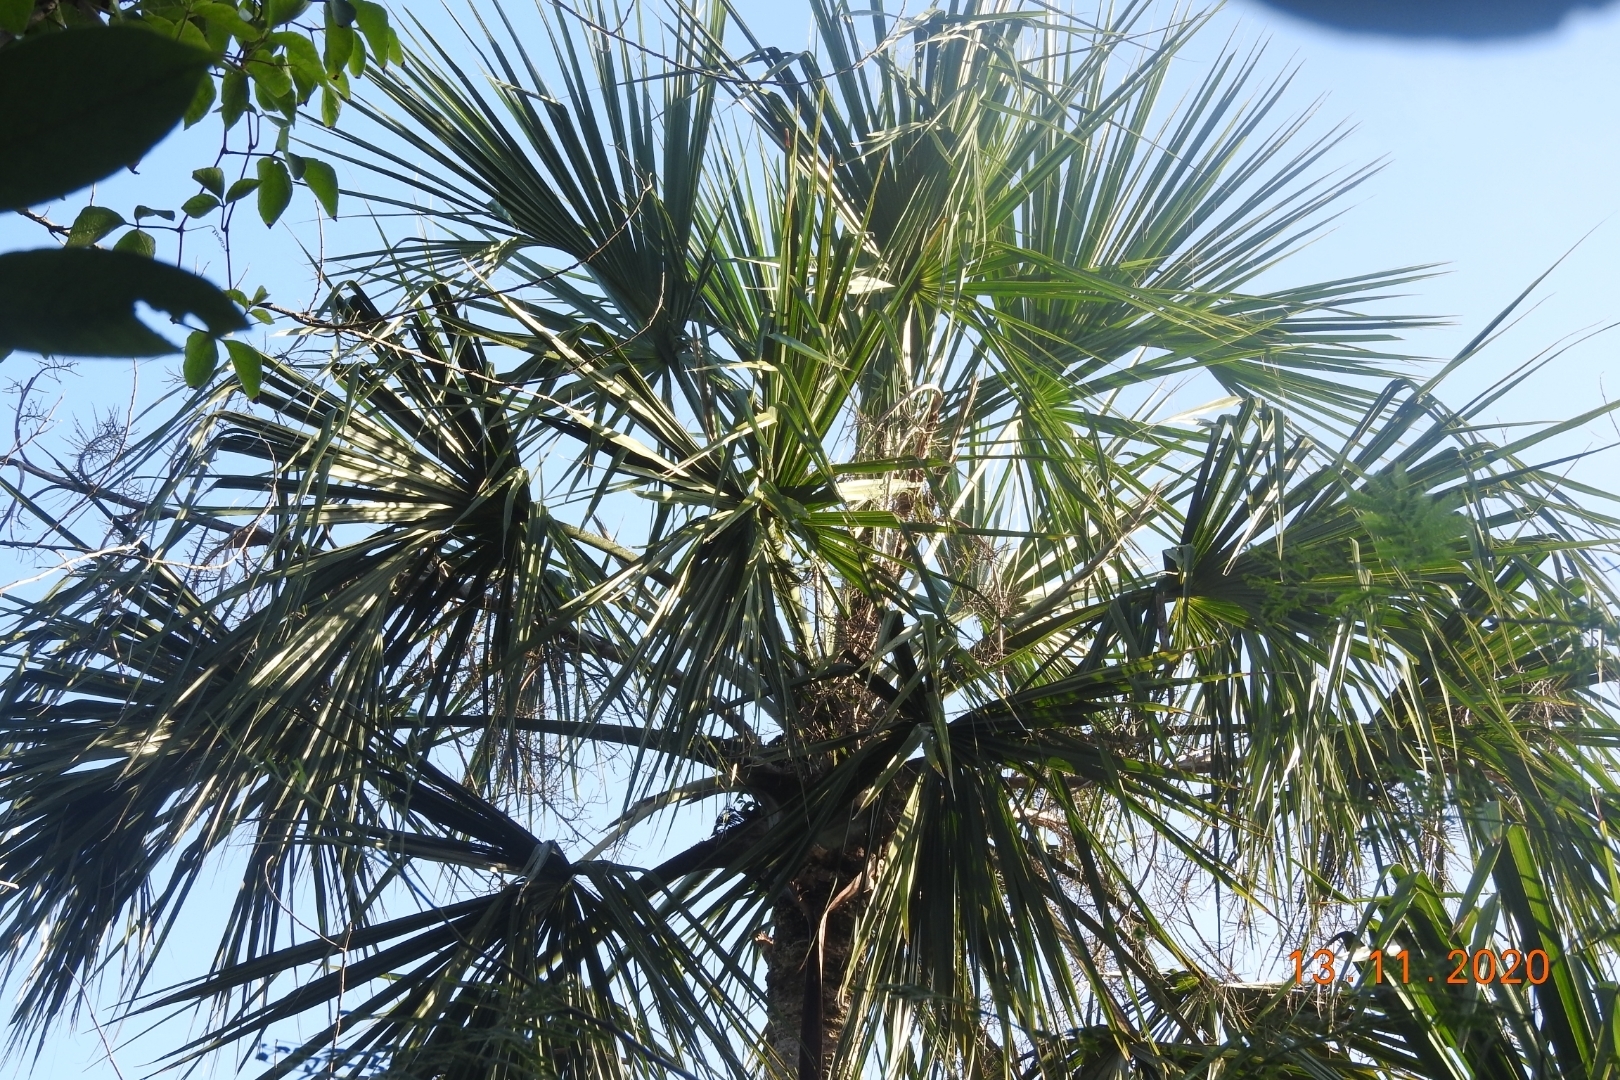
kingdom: Plantae
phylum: Tracheophyta
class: Liliopsida
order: Arecales
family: Arecaceae
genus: Sabal
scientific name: Sabal yapa
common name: Thatch palm
